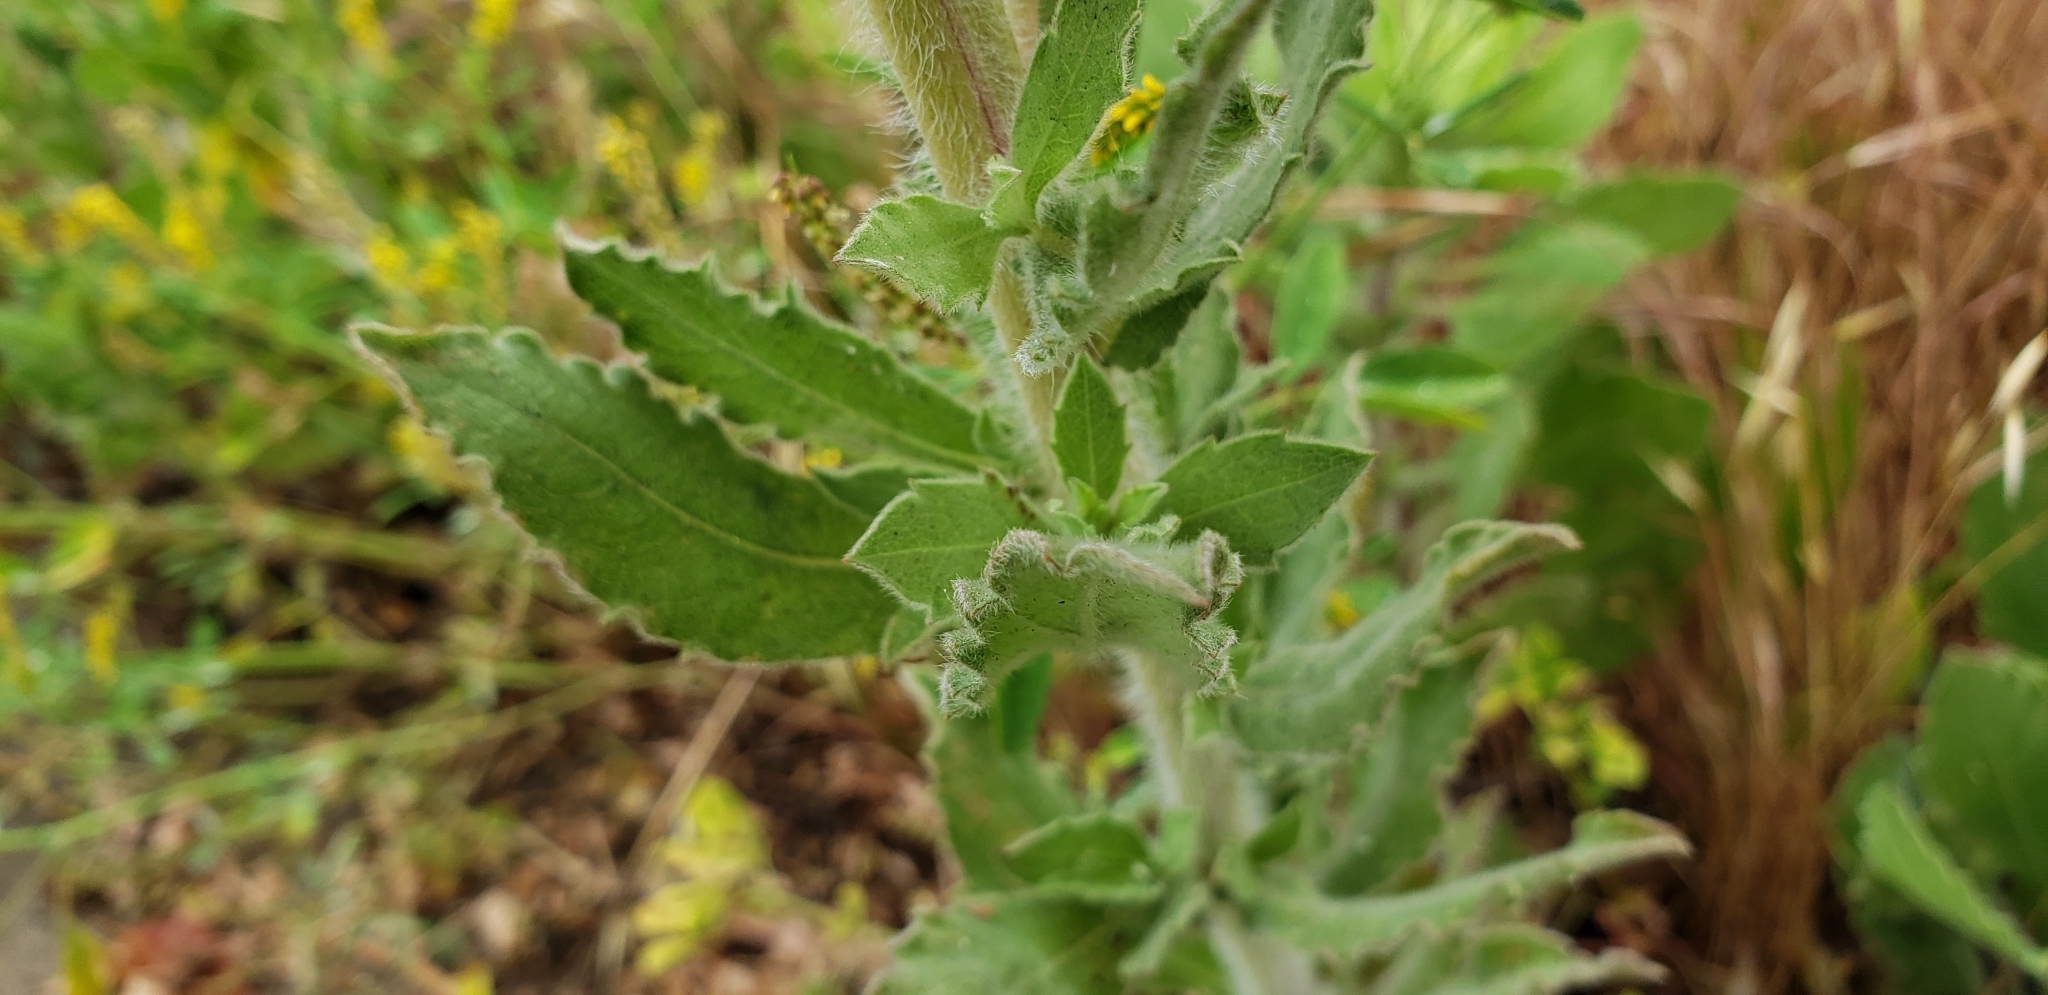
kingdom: Plantae
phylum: Tracheophyta
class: Magnoliopsida
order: Asterales
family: Asteraceae
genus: Heterotheca
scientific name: Heterotheca grandiflora
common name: Telegraphweed
